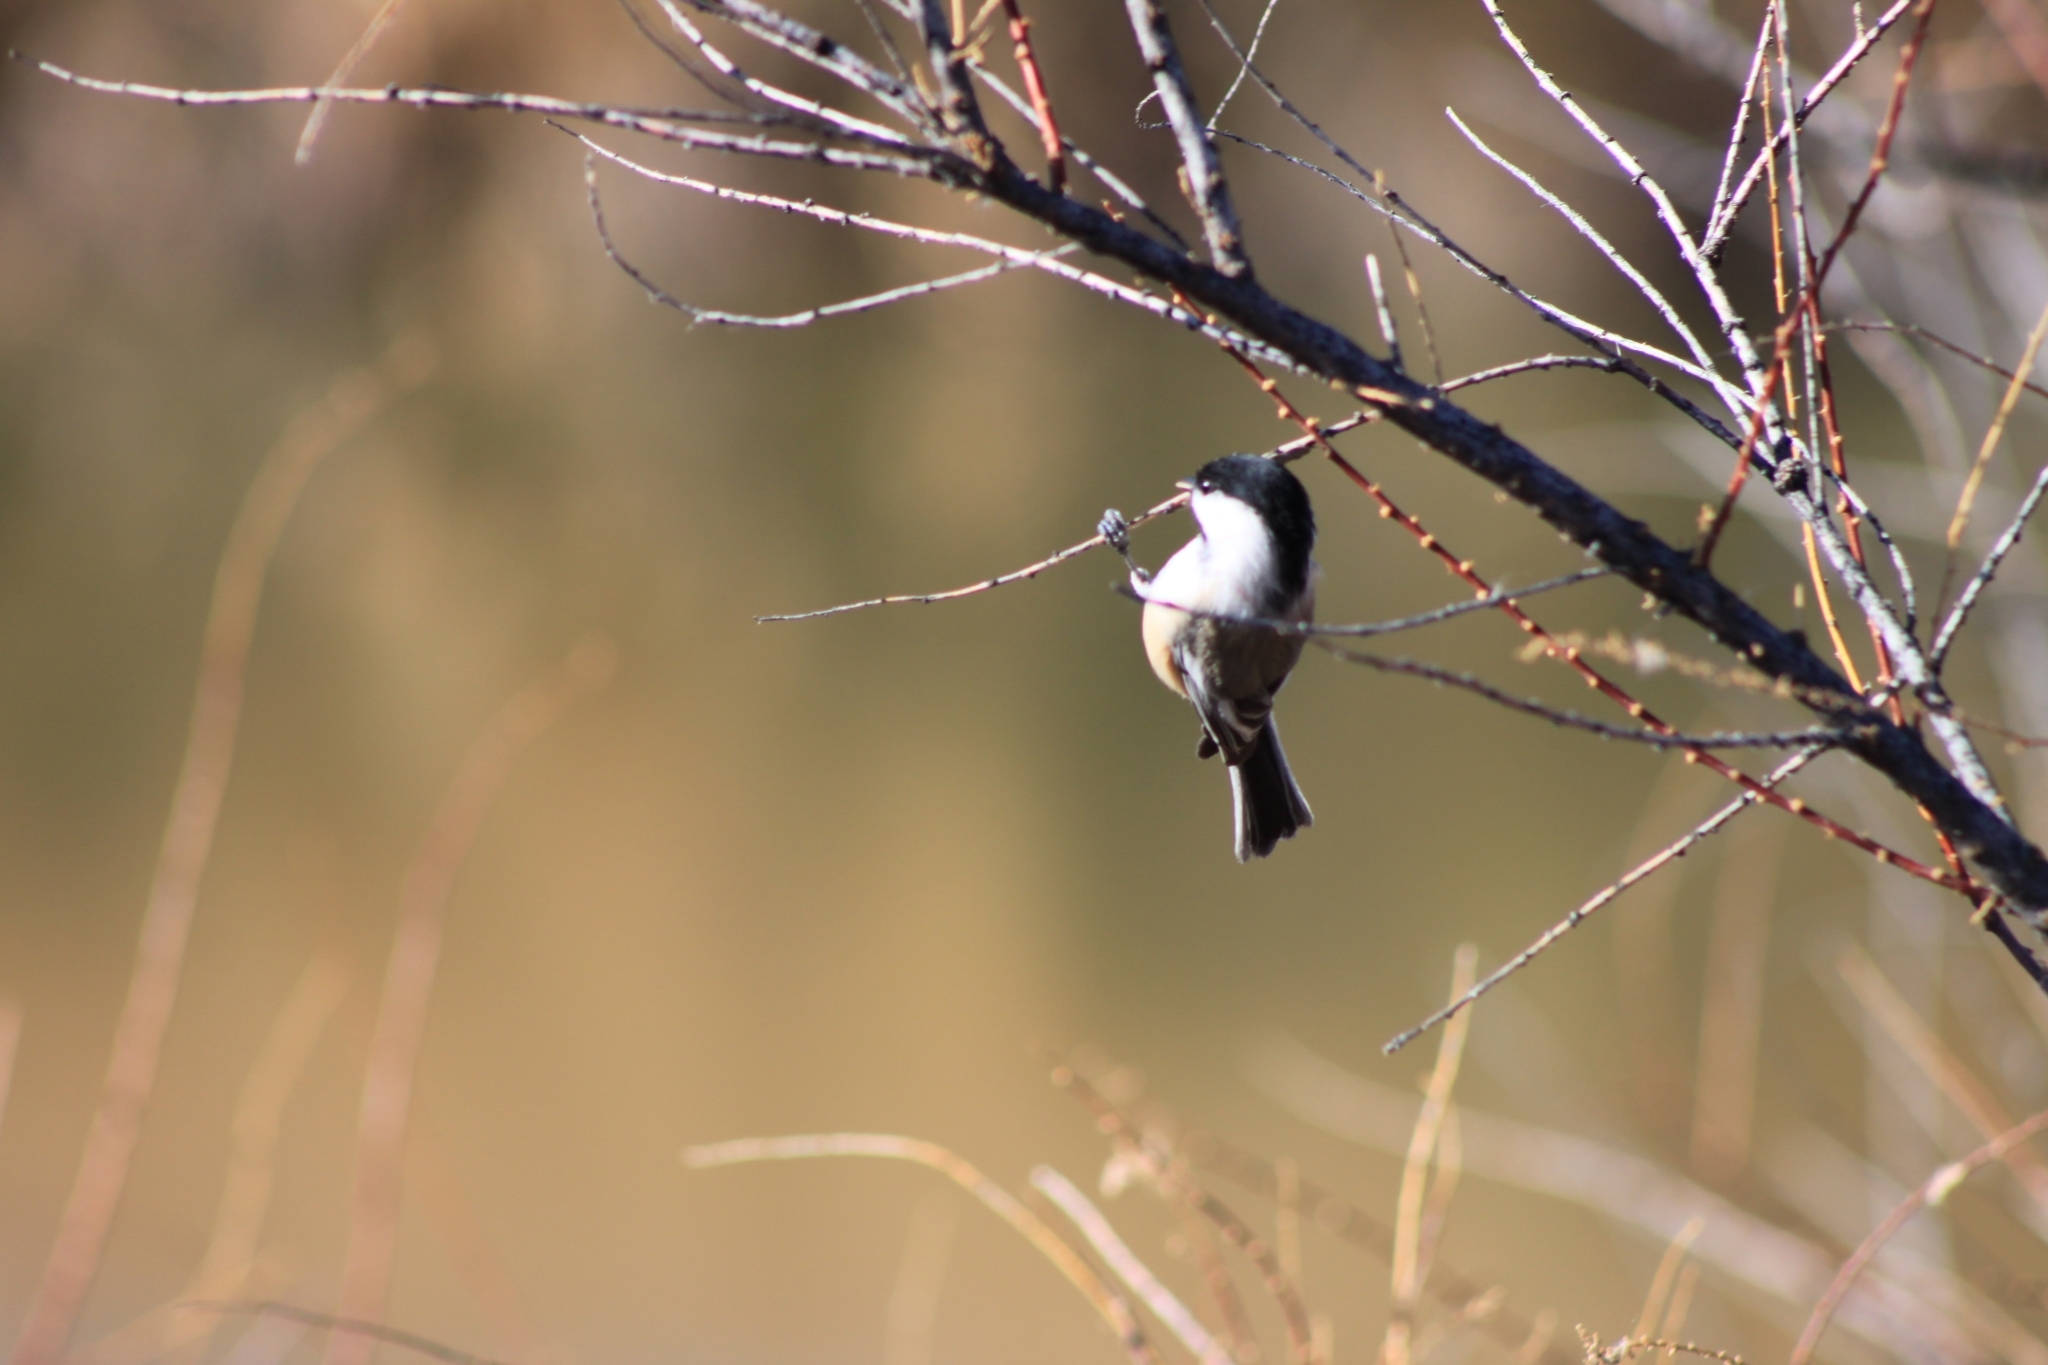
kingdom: Animalia
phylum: Chordata
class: Aves
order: Passeriformes
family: Paridae
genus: Poecile
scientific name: Poecile atricapillus
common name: Black-capped chickadee
